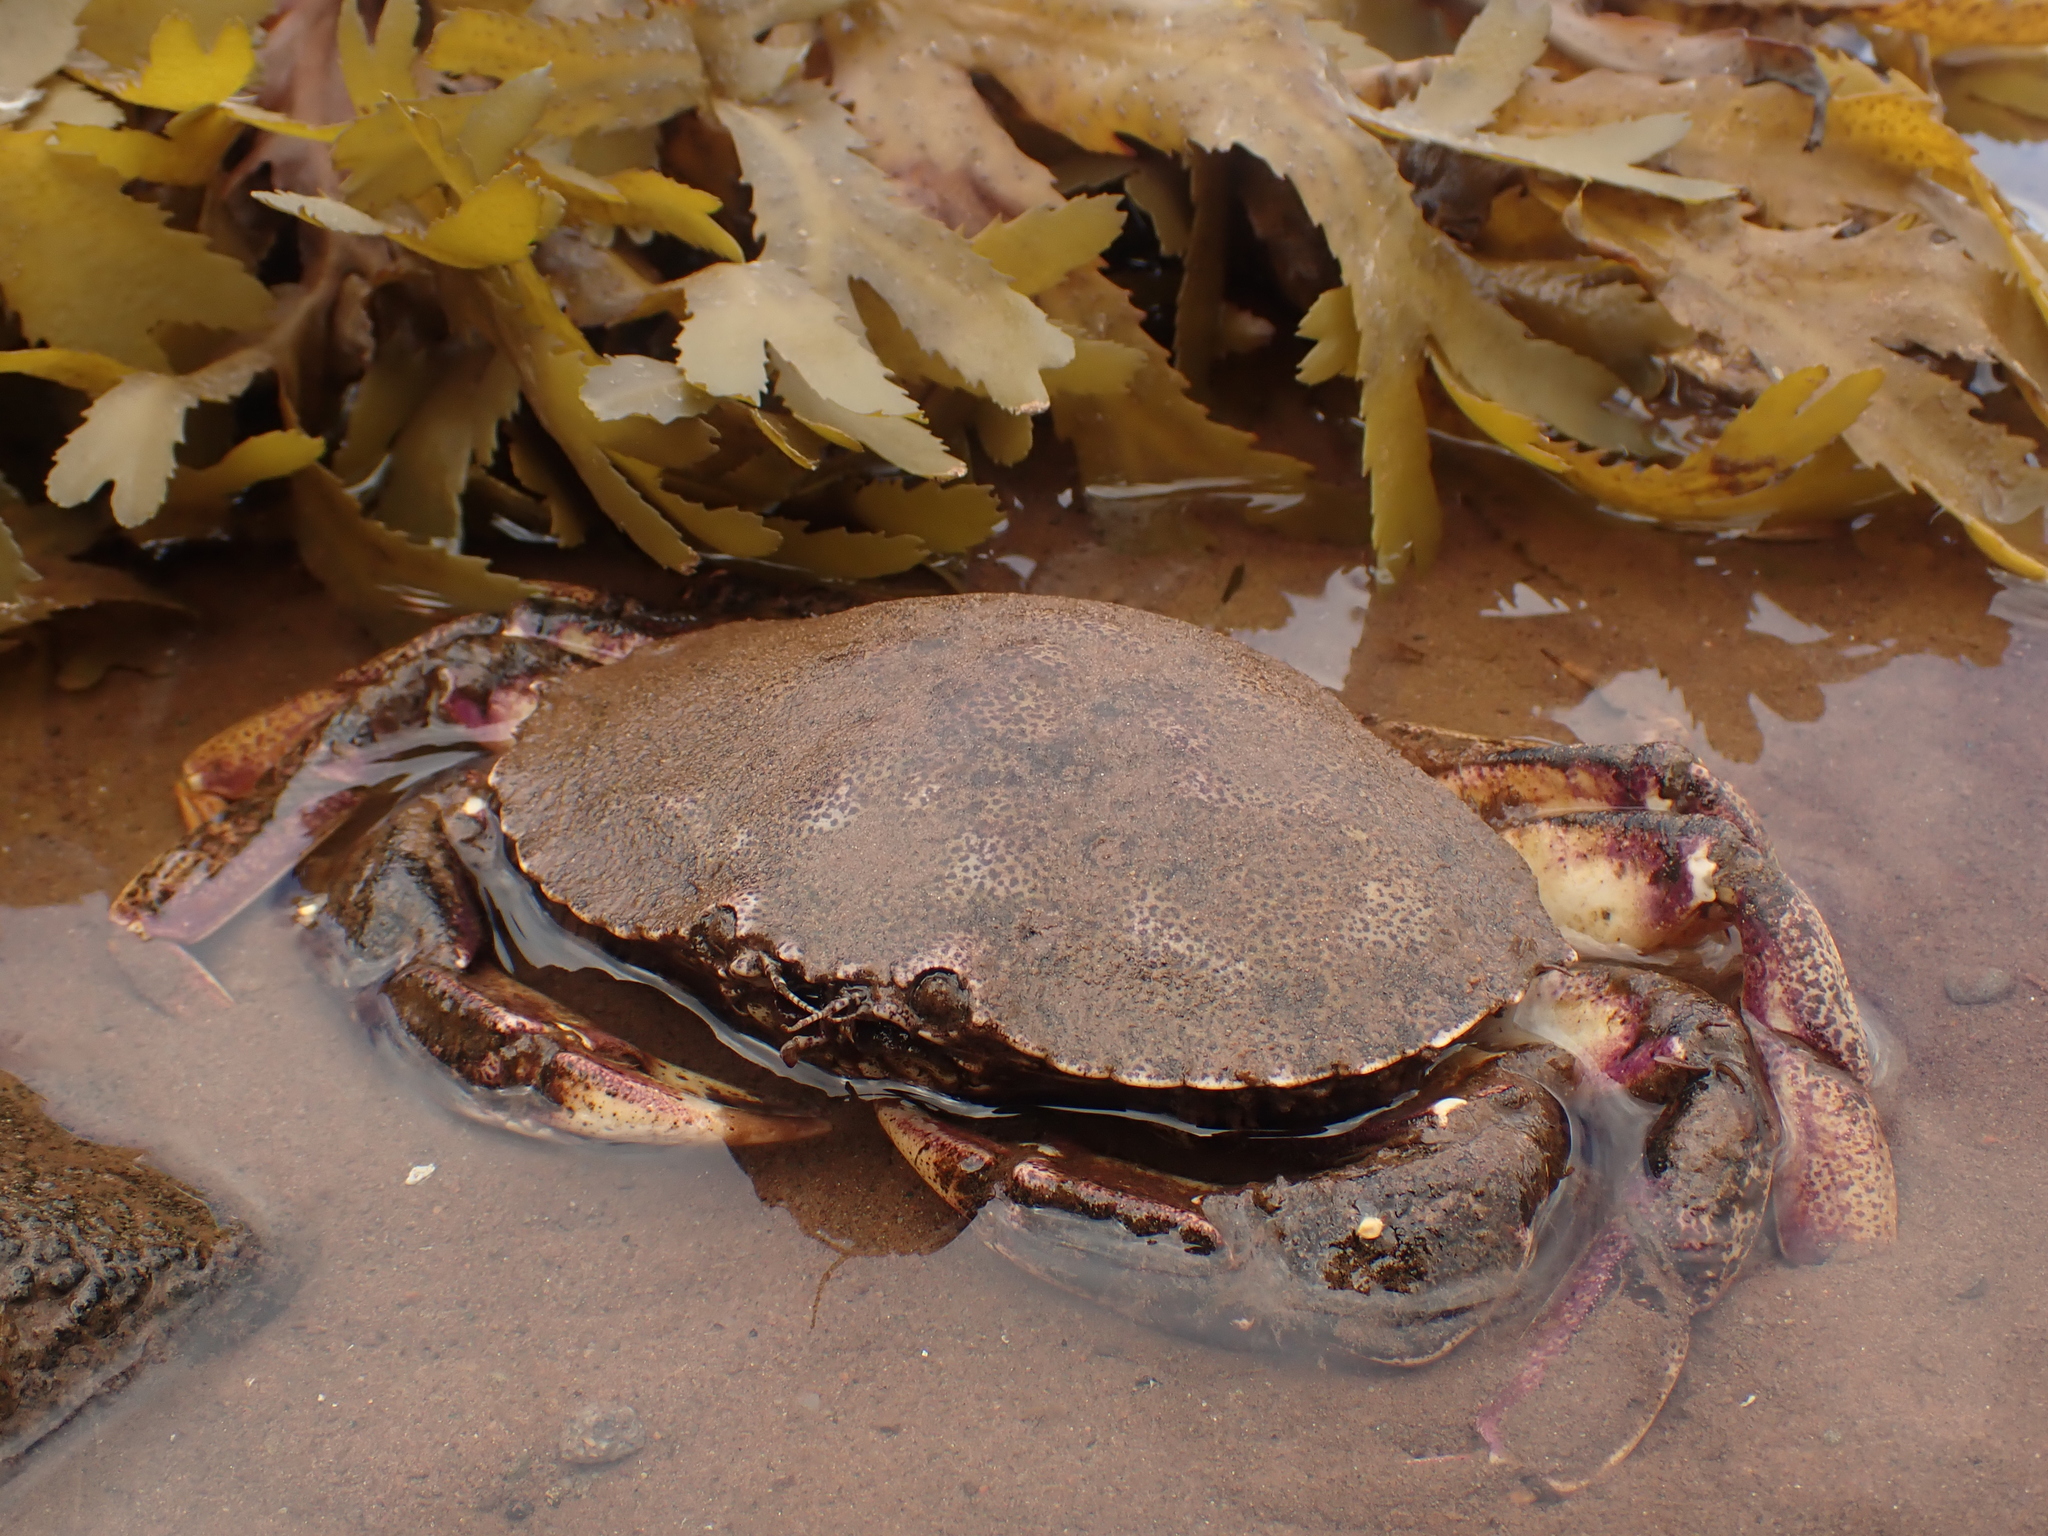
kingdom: Animalia
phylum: Arthropoda
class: Malacostraca
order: Decapoda
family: Cancridae
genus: Cancer
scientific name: Cancer irroratus
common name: Atlantic rock crab
